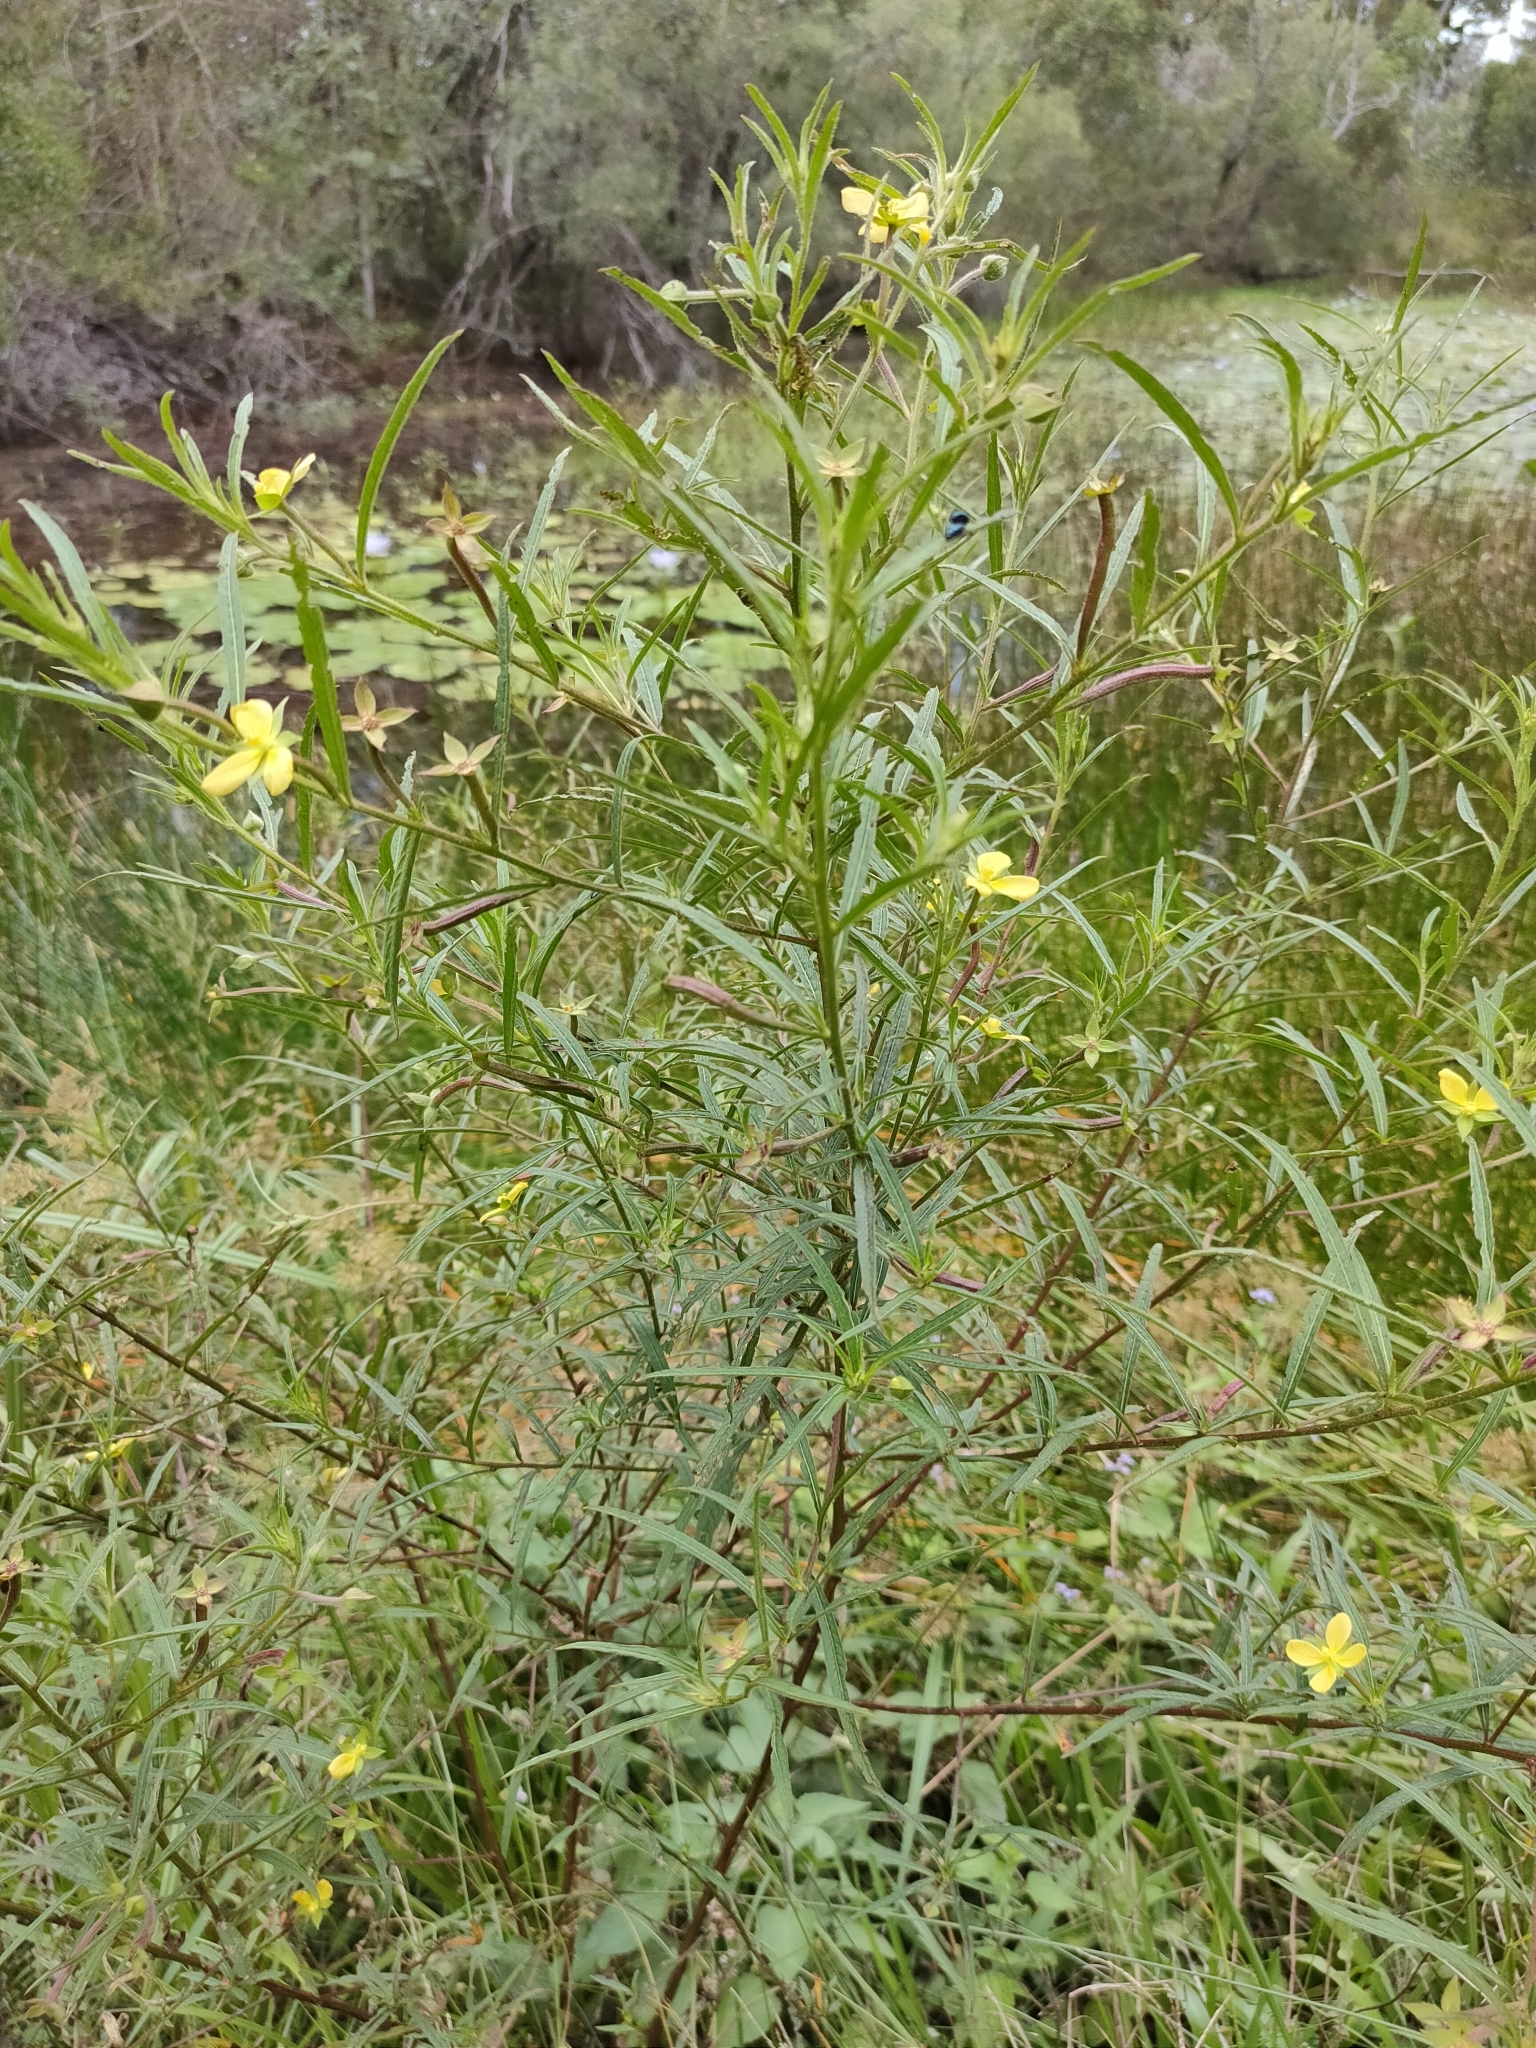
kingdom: Plantae
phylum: Tracheophyta
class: Magnoliopsida
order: Myrtales
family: Onagraceae
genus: Ludwigia
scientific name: Ludwigia octovalvis
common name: Water-primrose
